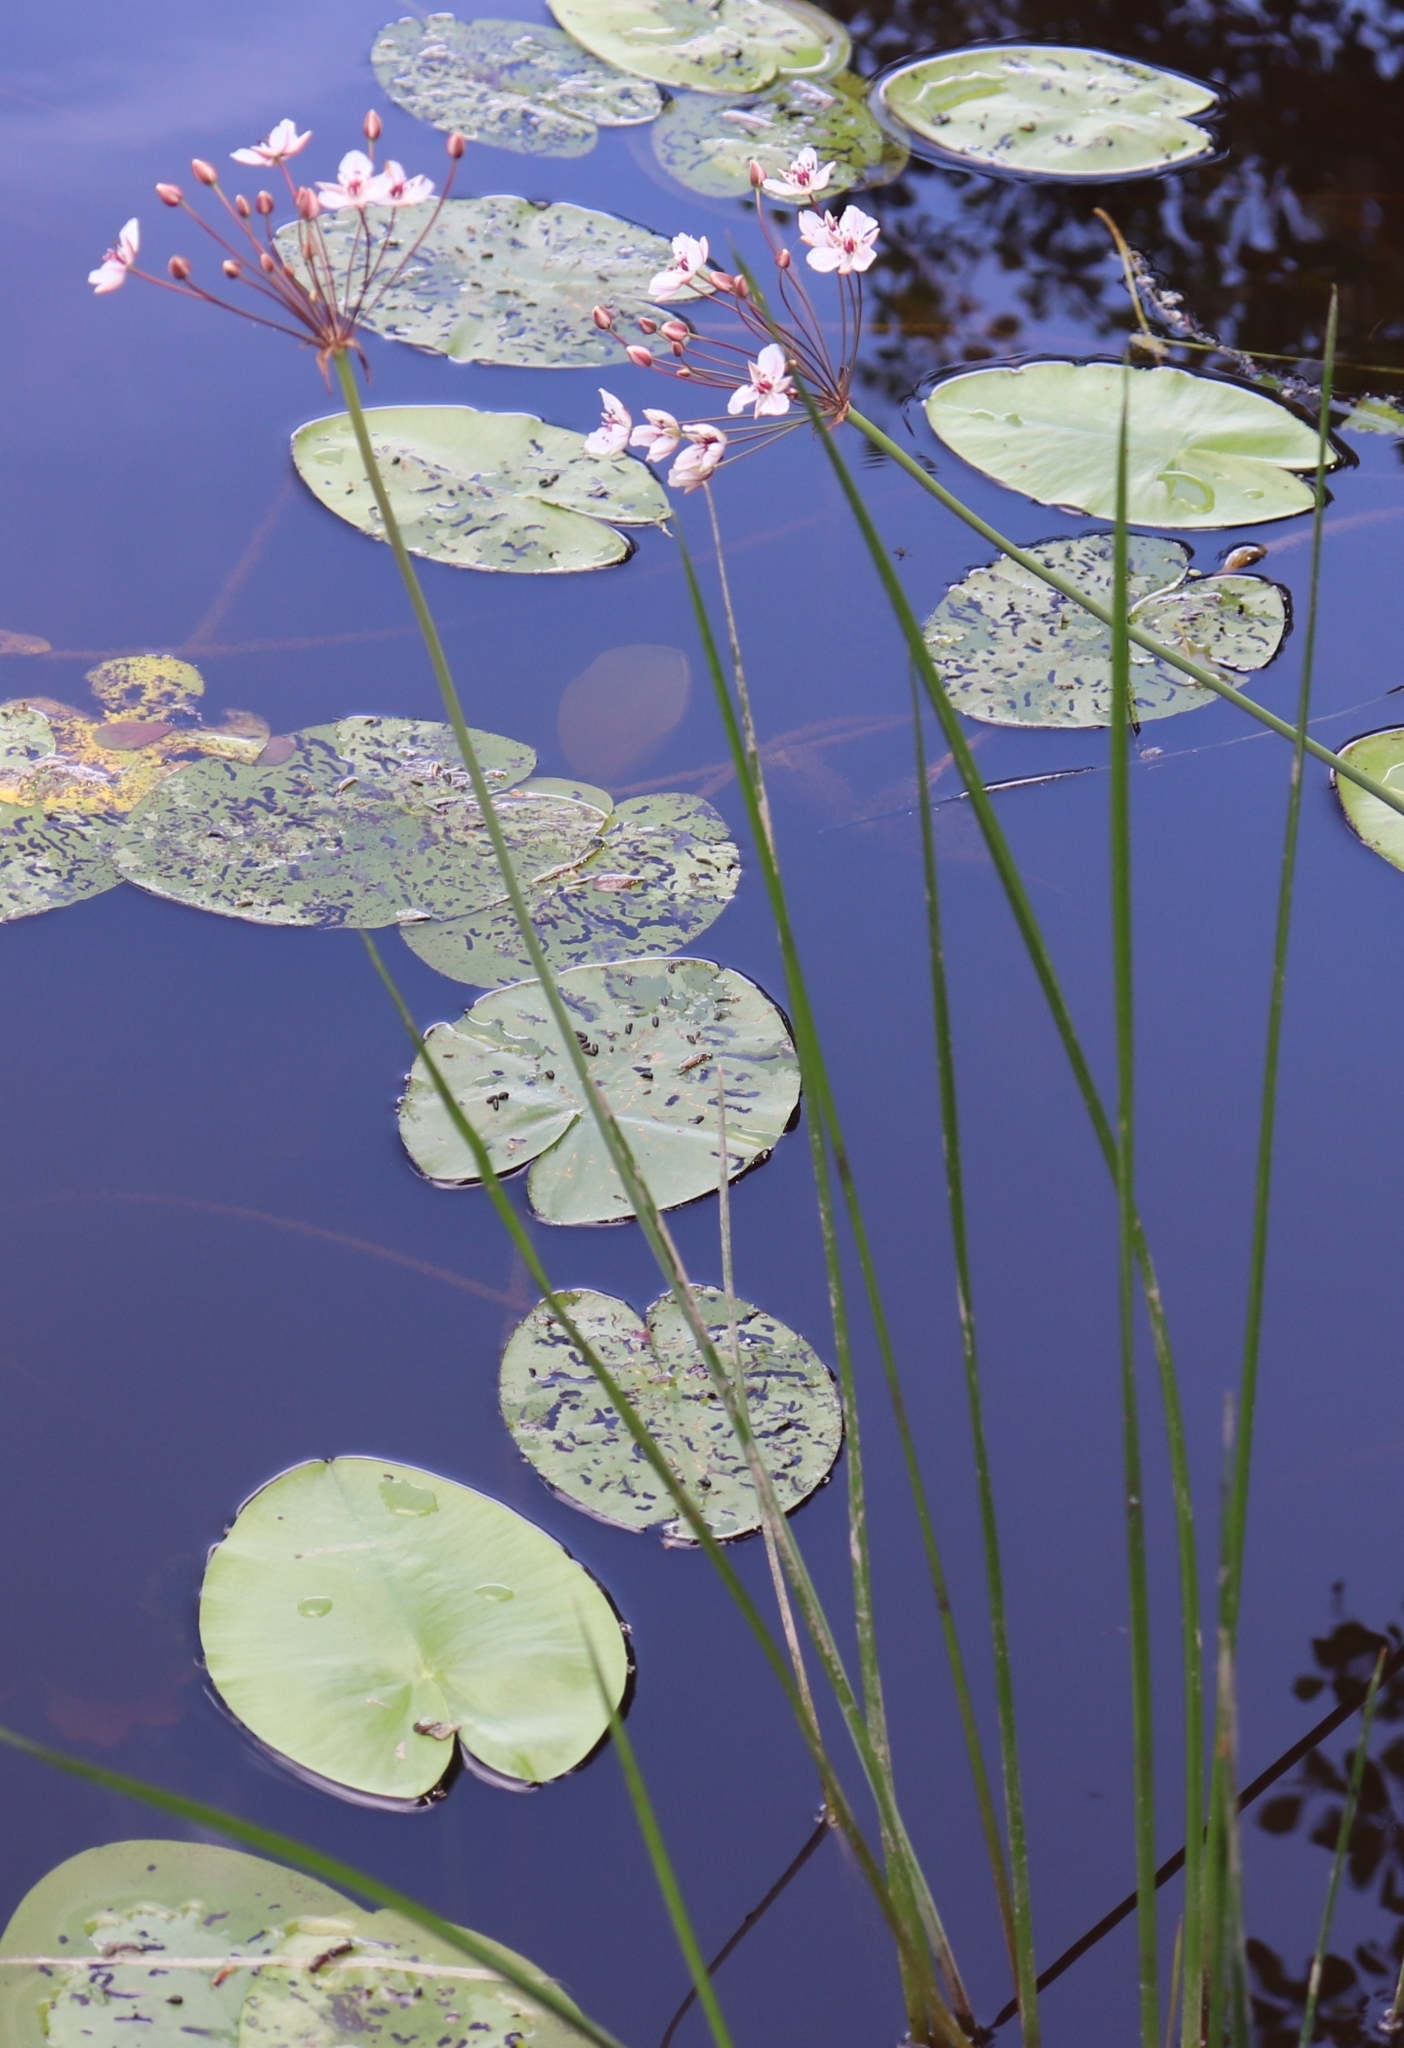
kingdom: Plantae
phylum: Tracheophyta
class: Liliopsida
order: Alismatales
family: Butomaceae
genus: Butomus
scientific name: Butomus umbellatus
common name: Flowering-rush
